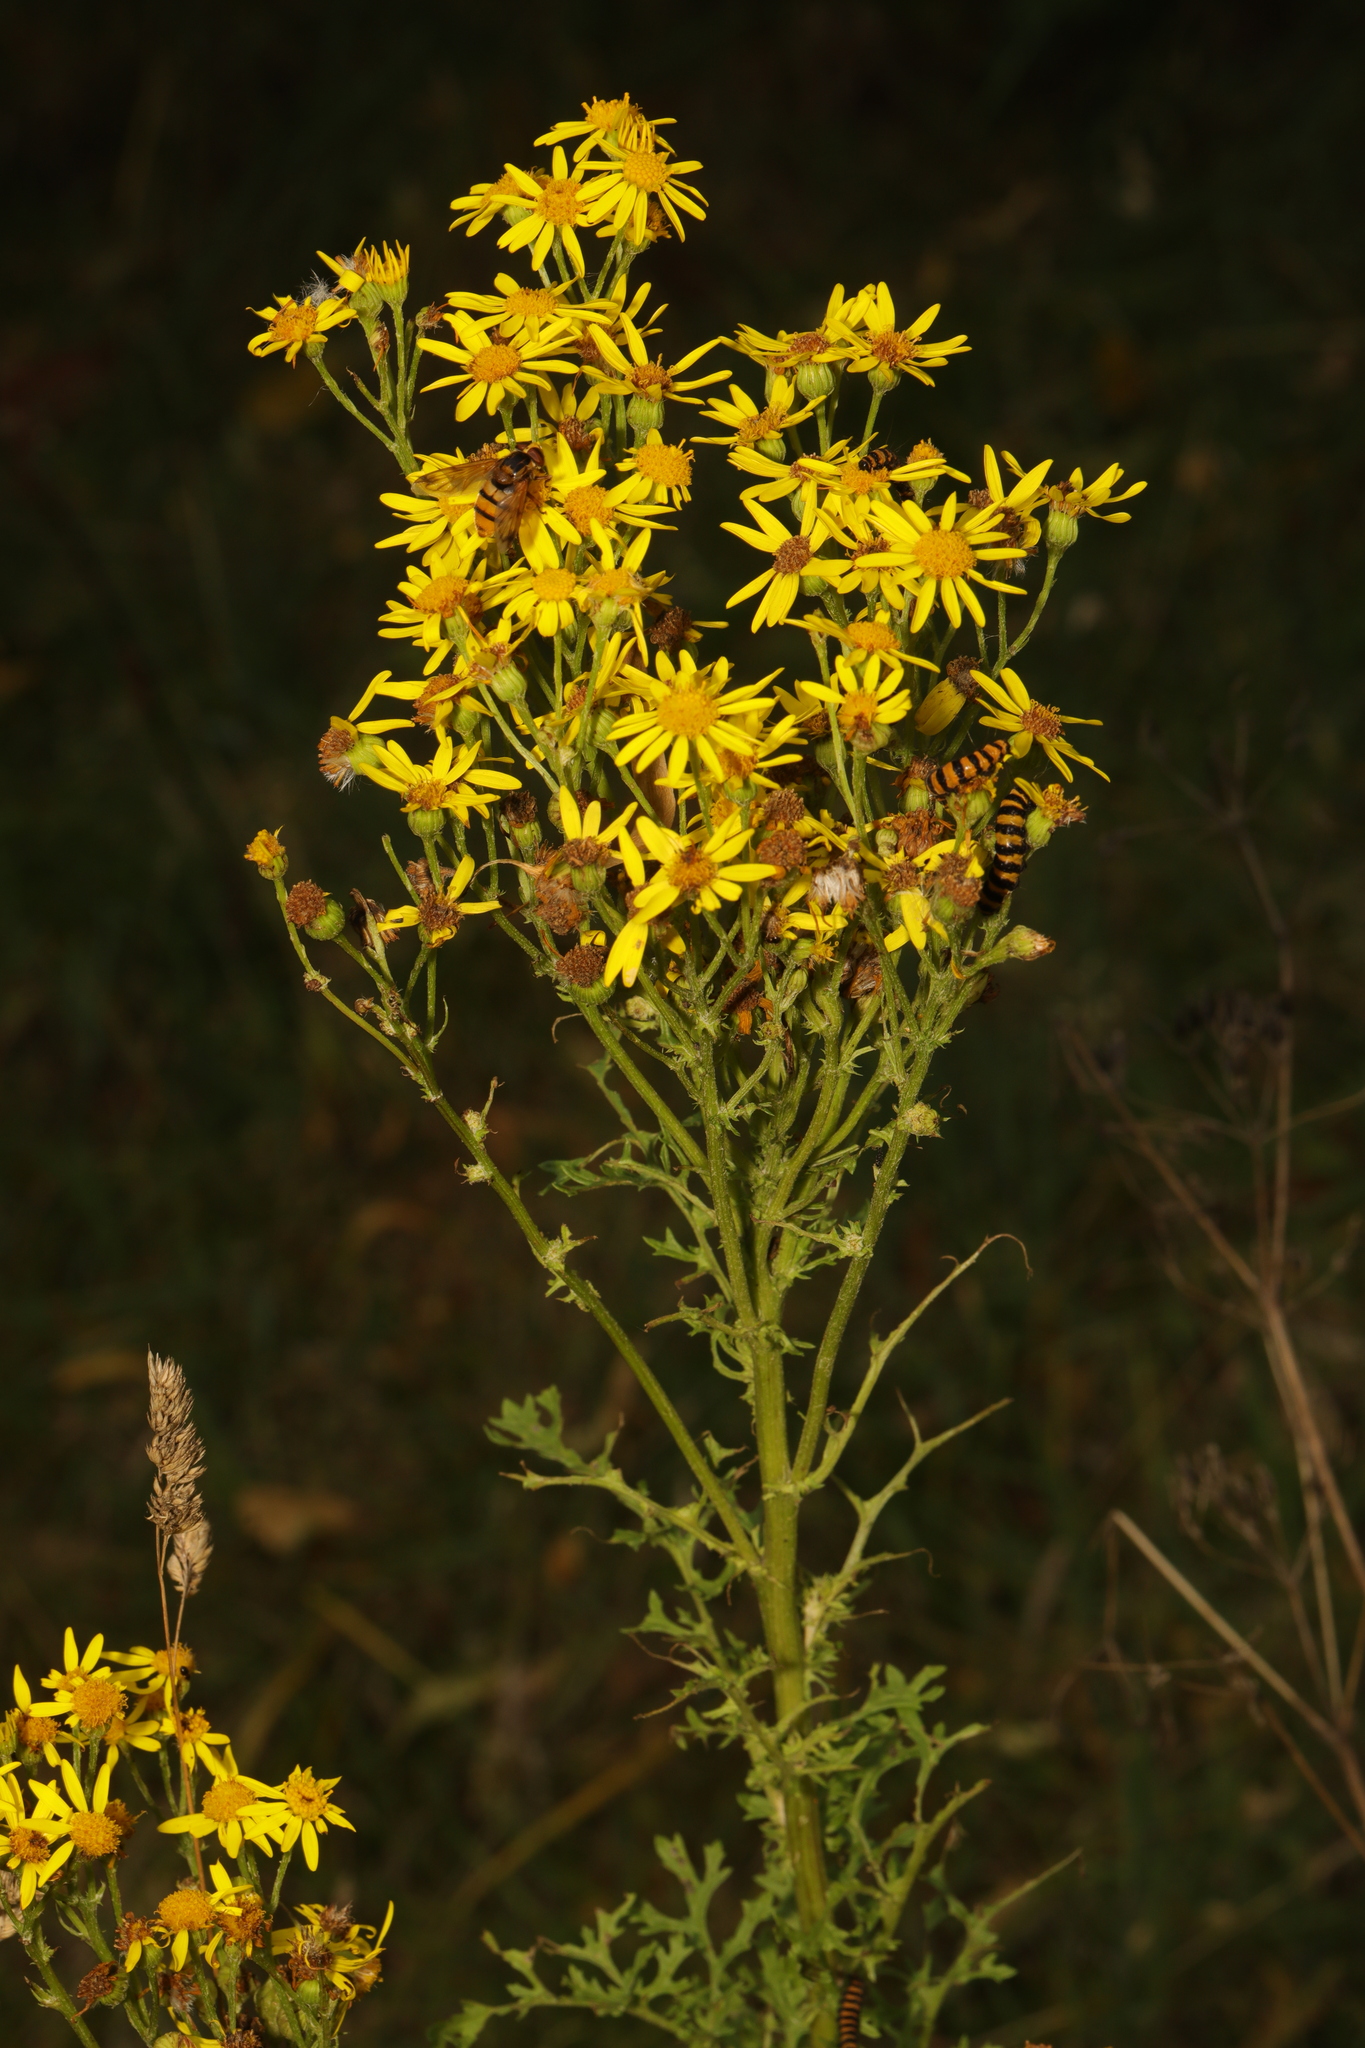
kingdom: Plantae
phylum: Tracheophyta
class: Magnoliopsida
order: Asterales
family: Asteraceae
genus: Jacobaea
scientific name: Jacobaea vulgaris
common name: Stinking willie
